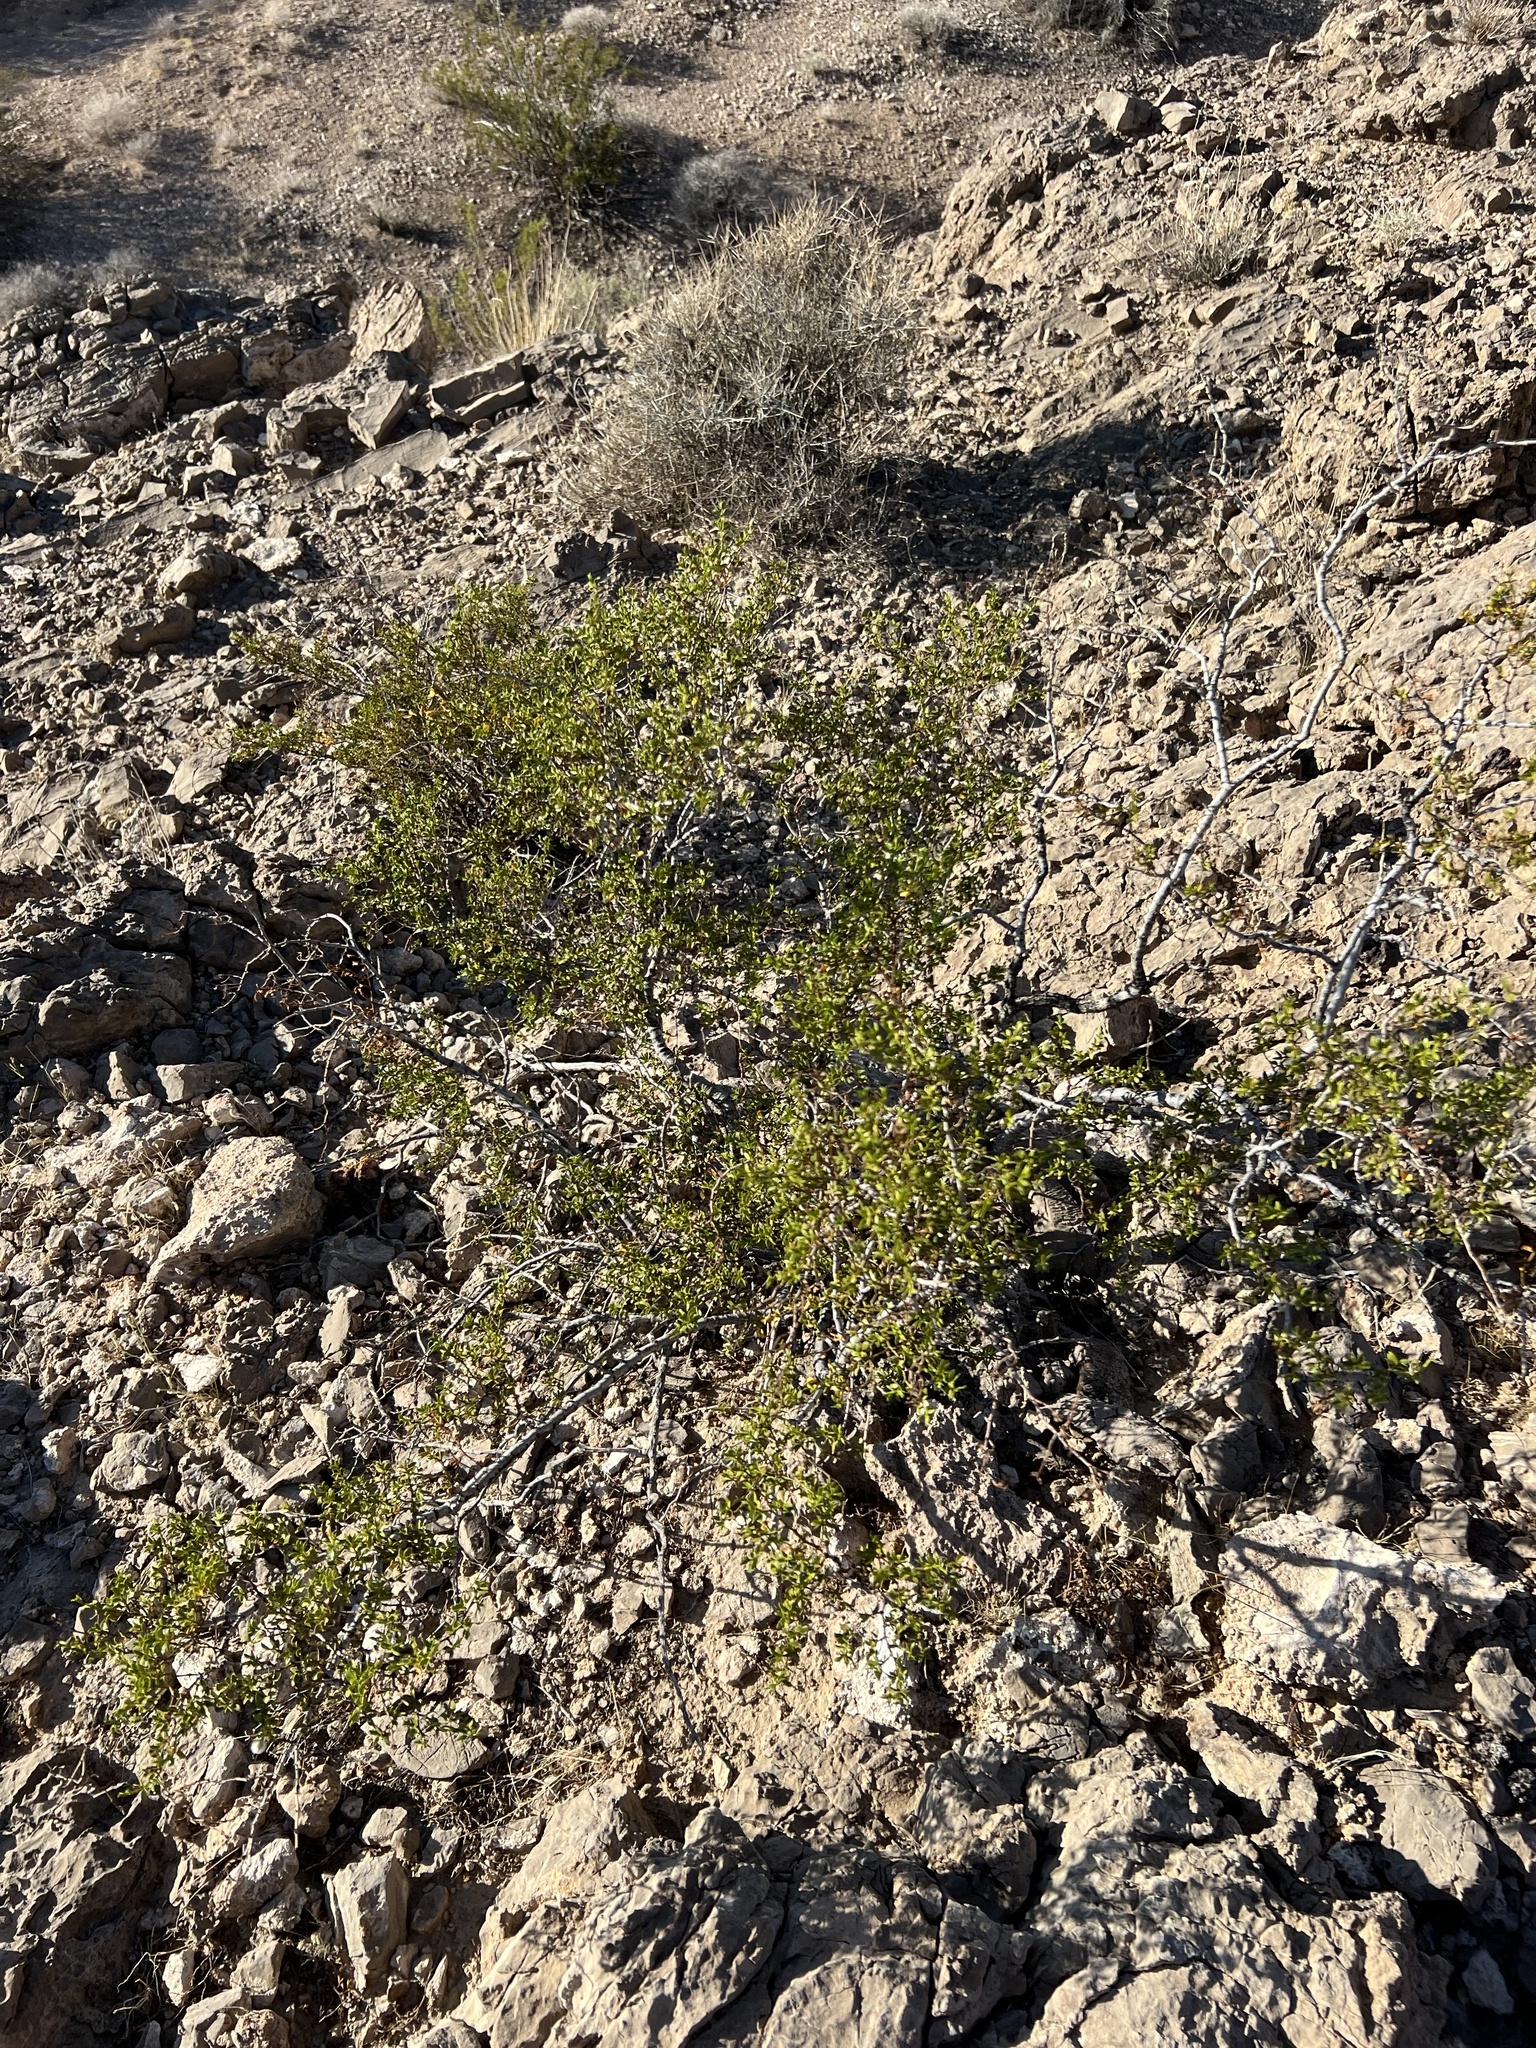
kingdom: Plantae
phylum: Tracheophyta
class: Magnoliopsida
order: Zygophyllales
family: Zygophyllaceae
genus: Larrea
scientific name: Larrea tridentata
